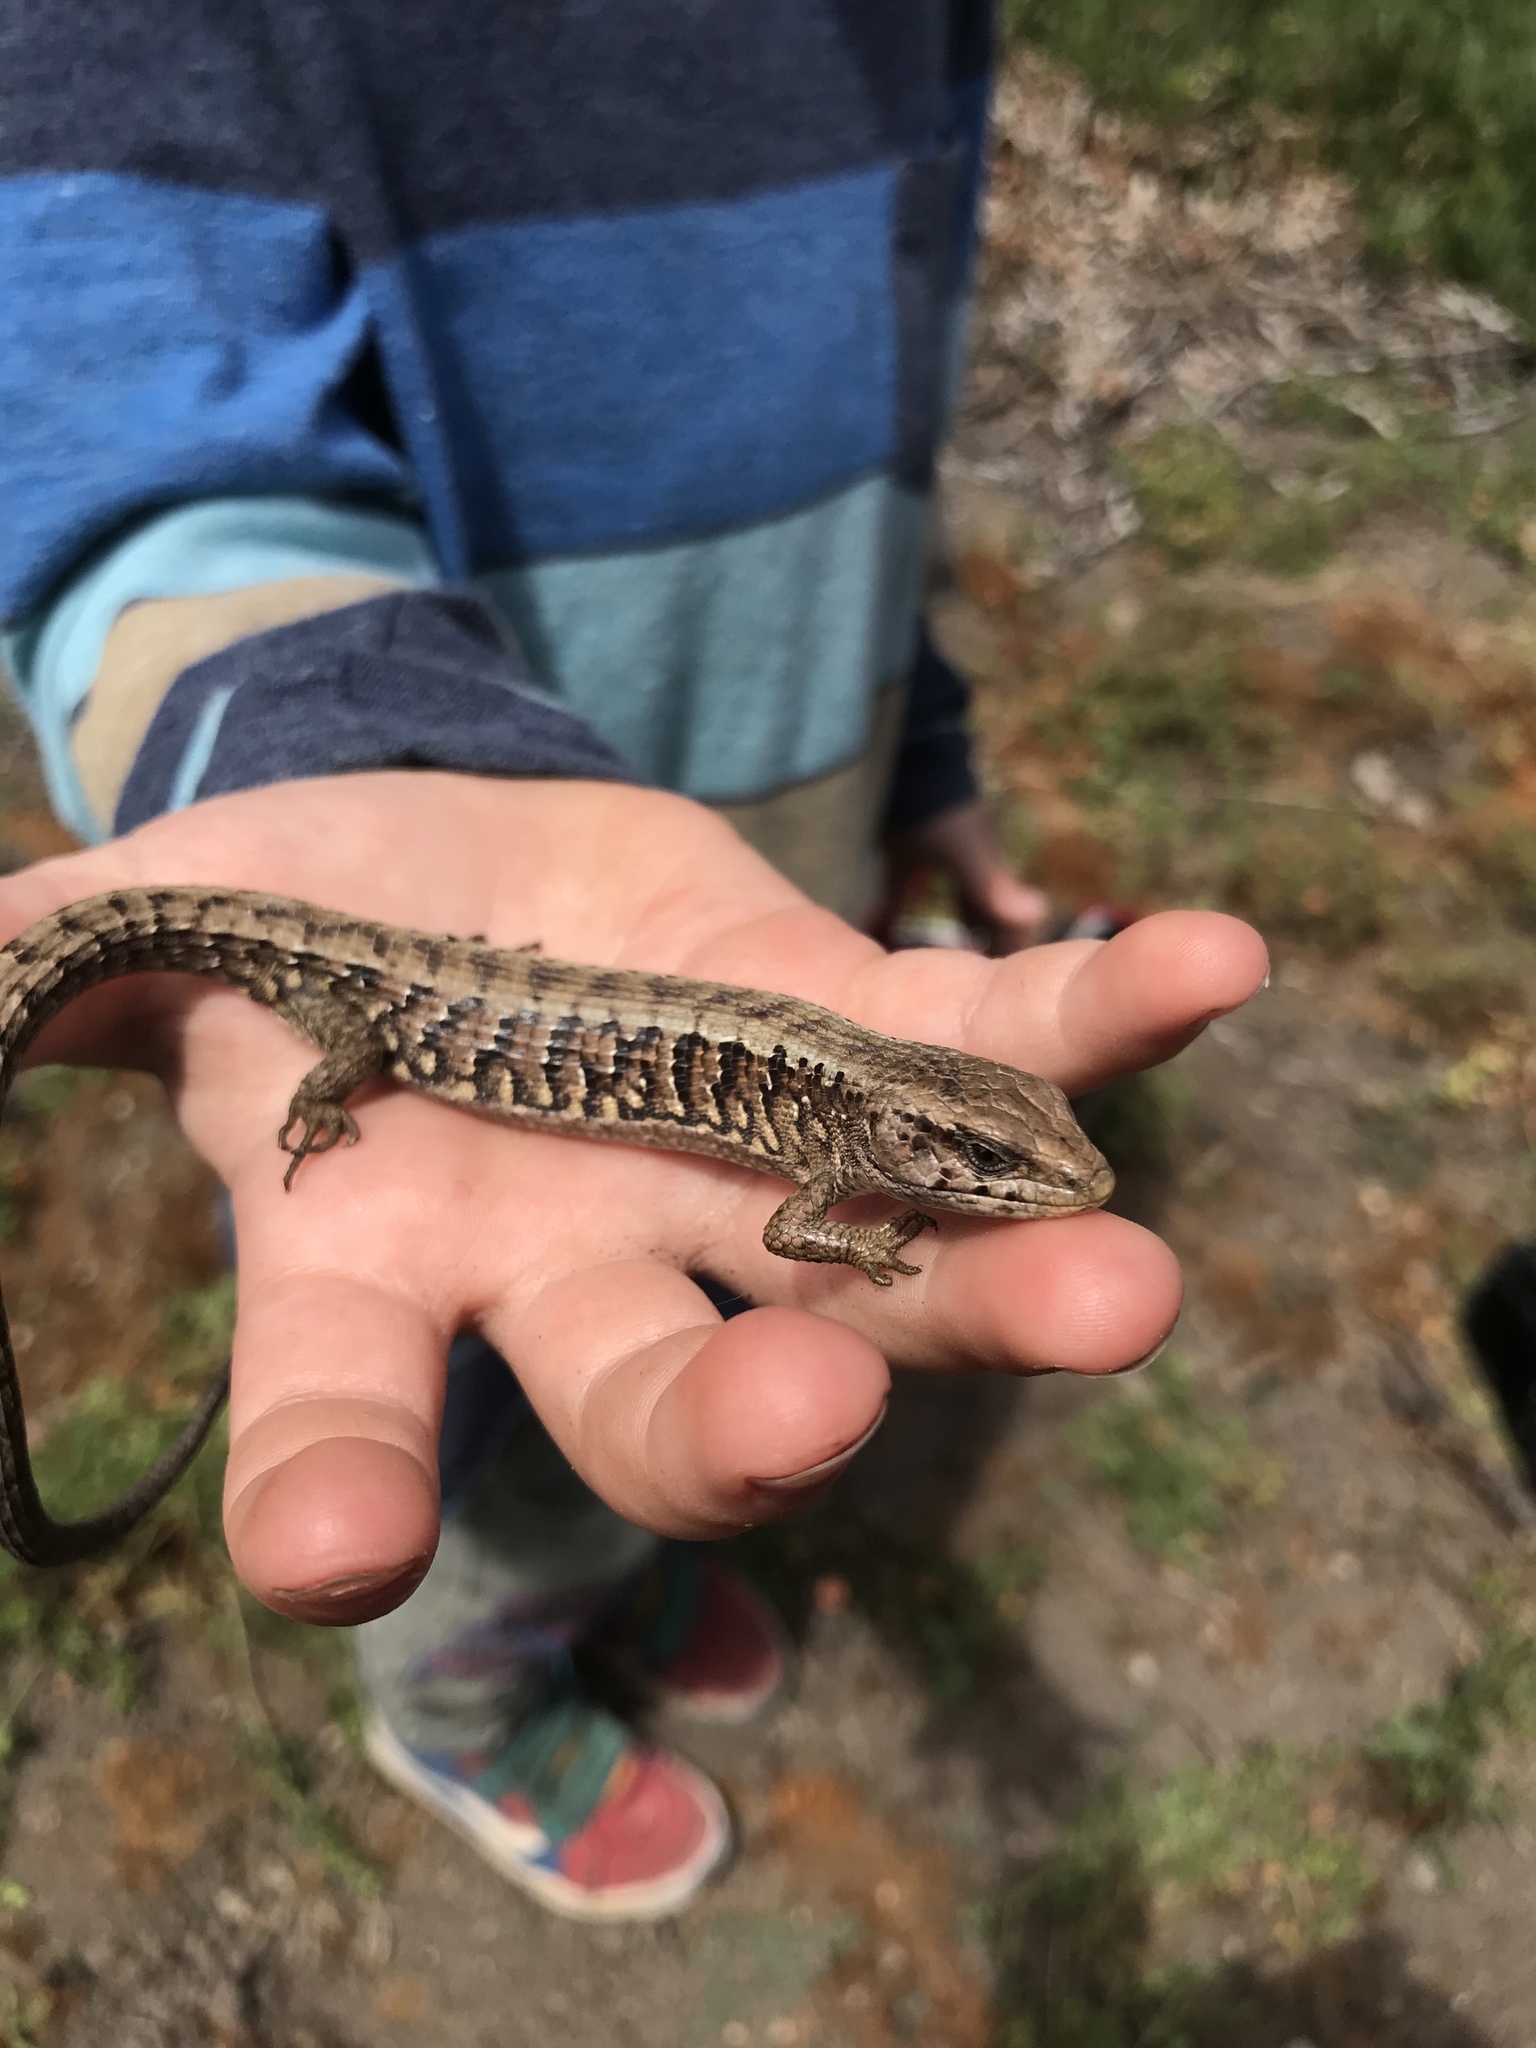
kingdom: Animalia
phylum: Chordata
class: Squamata
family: Anguidae
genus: Elgaria
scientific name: Elgaria coerulea
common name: Northern alligator lizard
